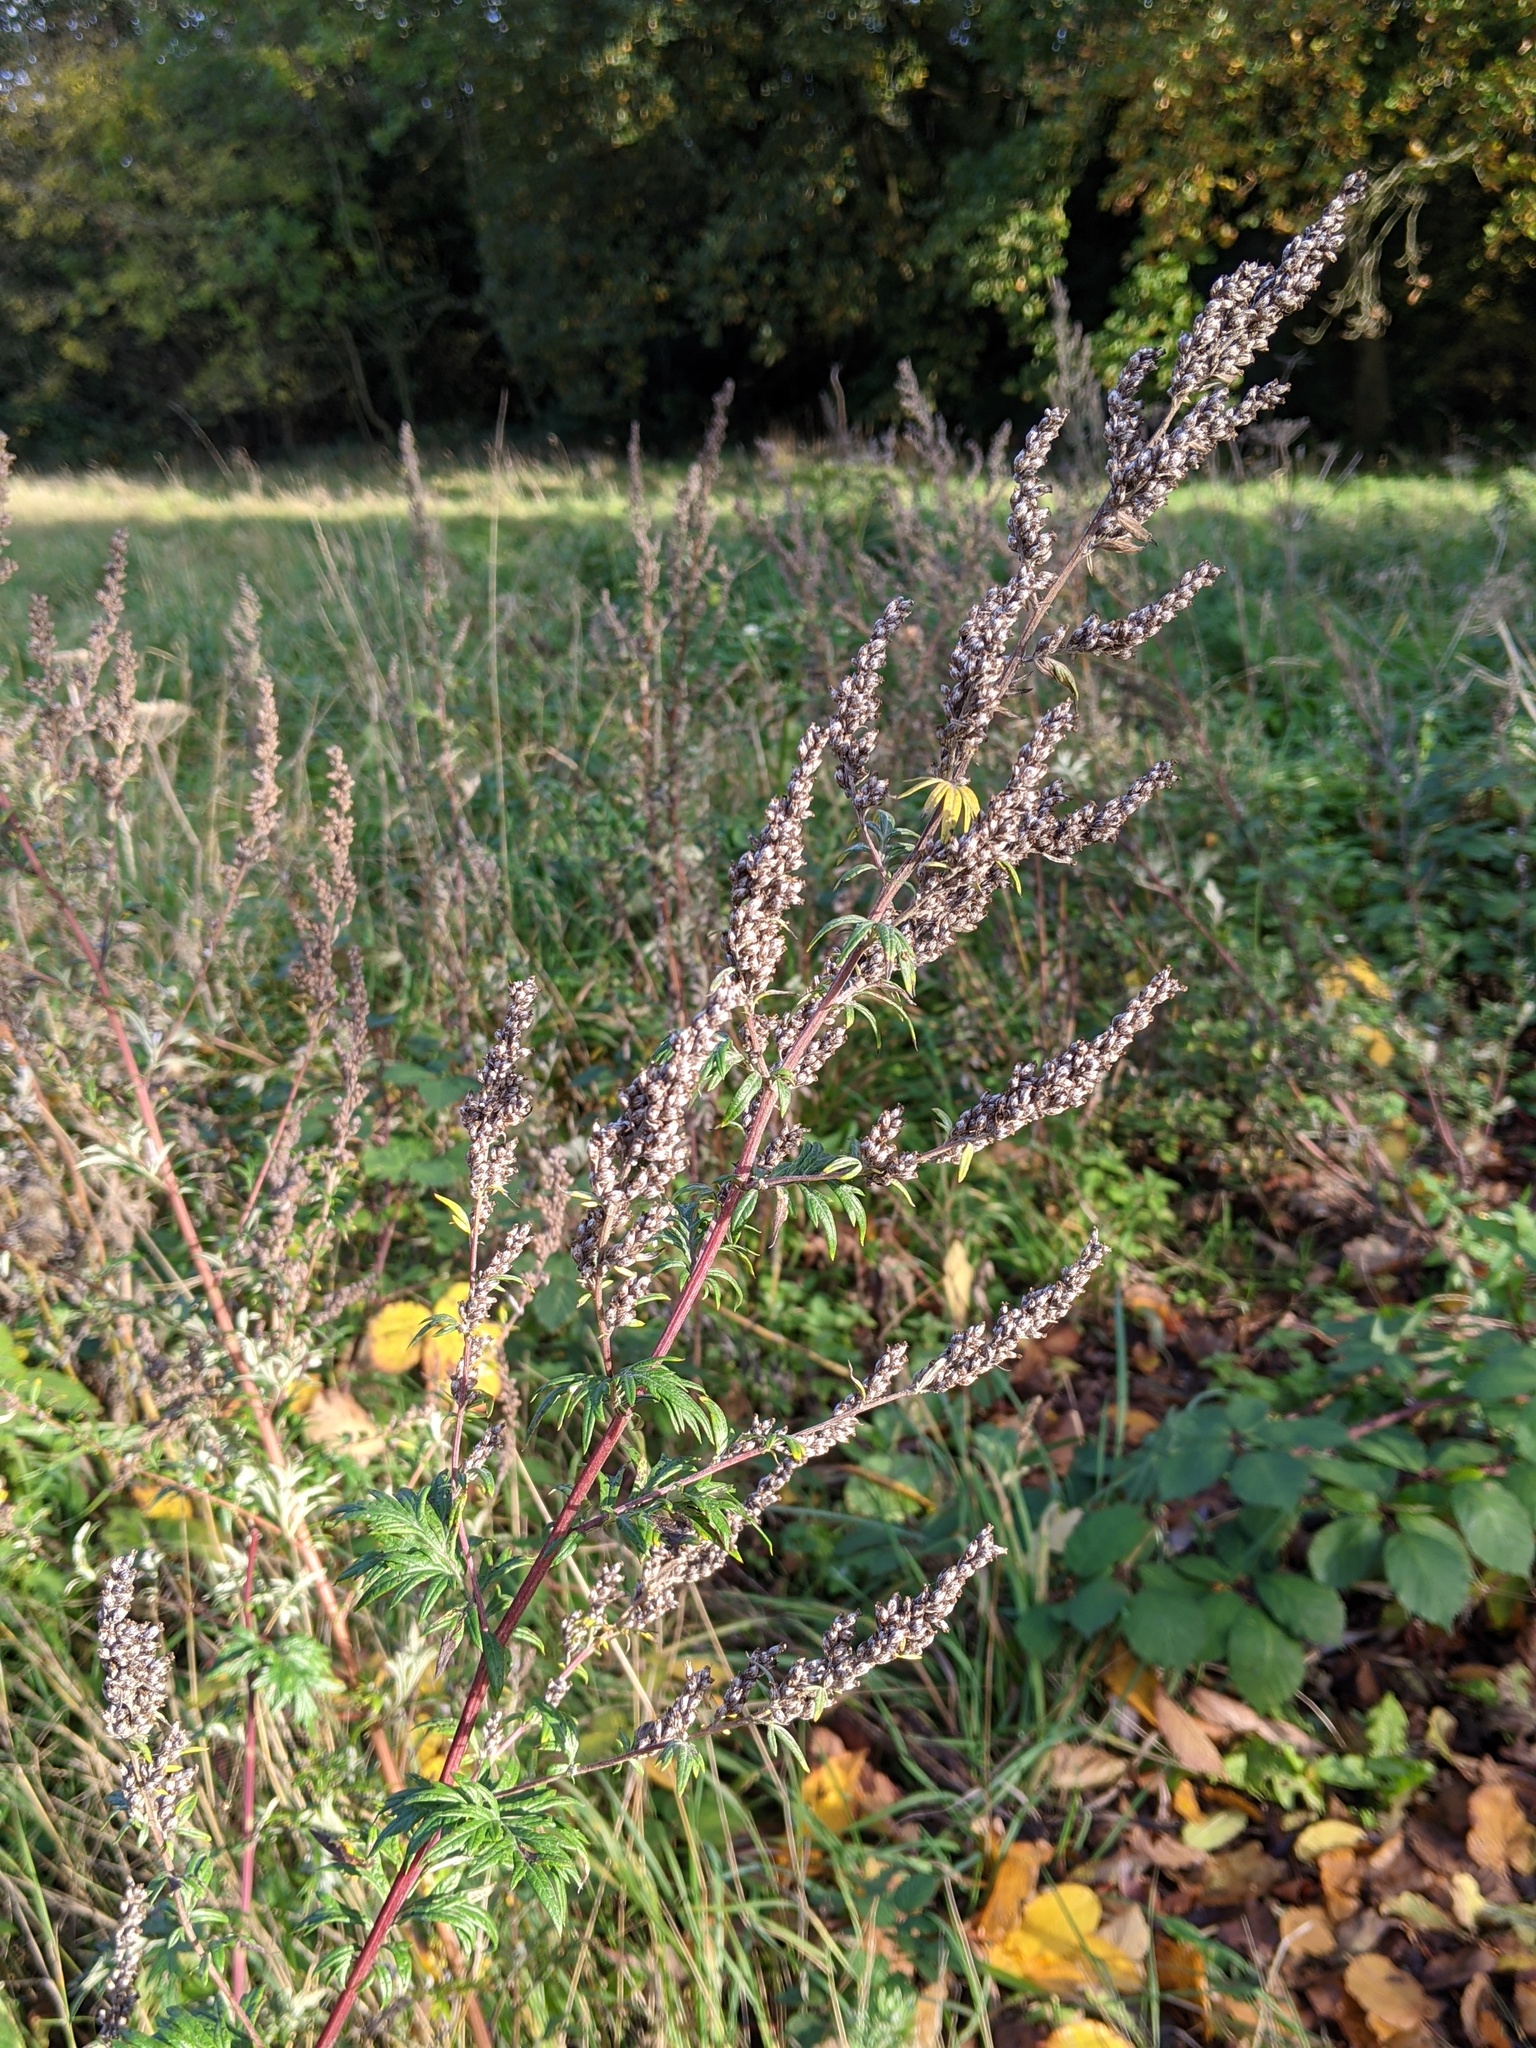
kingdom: Plantae
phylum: Tracheophyta
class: Magnoliopsida
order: Asterales
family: Asteraceae
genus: Artemisia
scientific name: Artemisia vulgaris
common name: Mugwort
